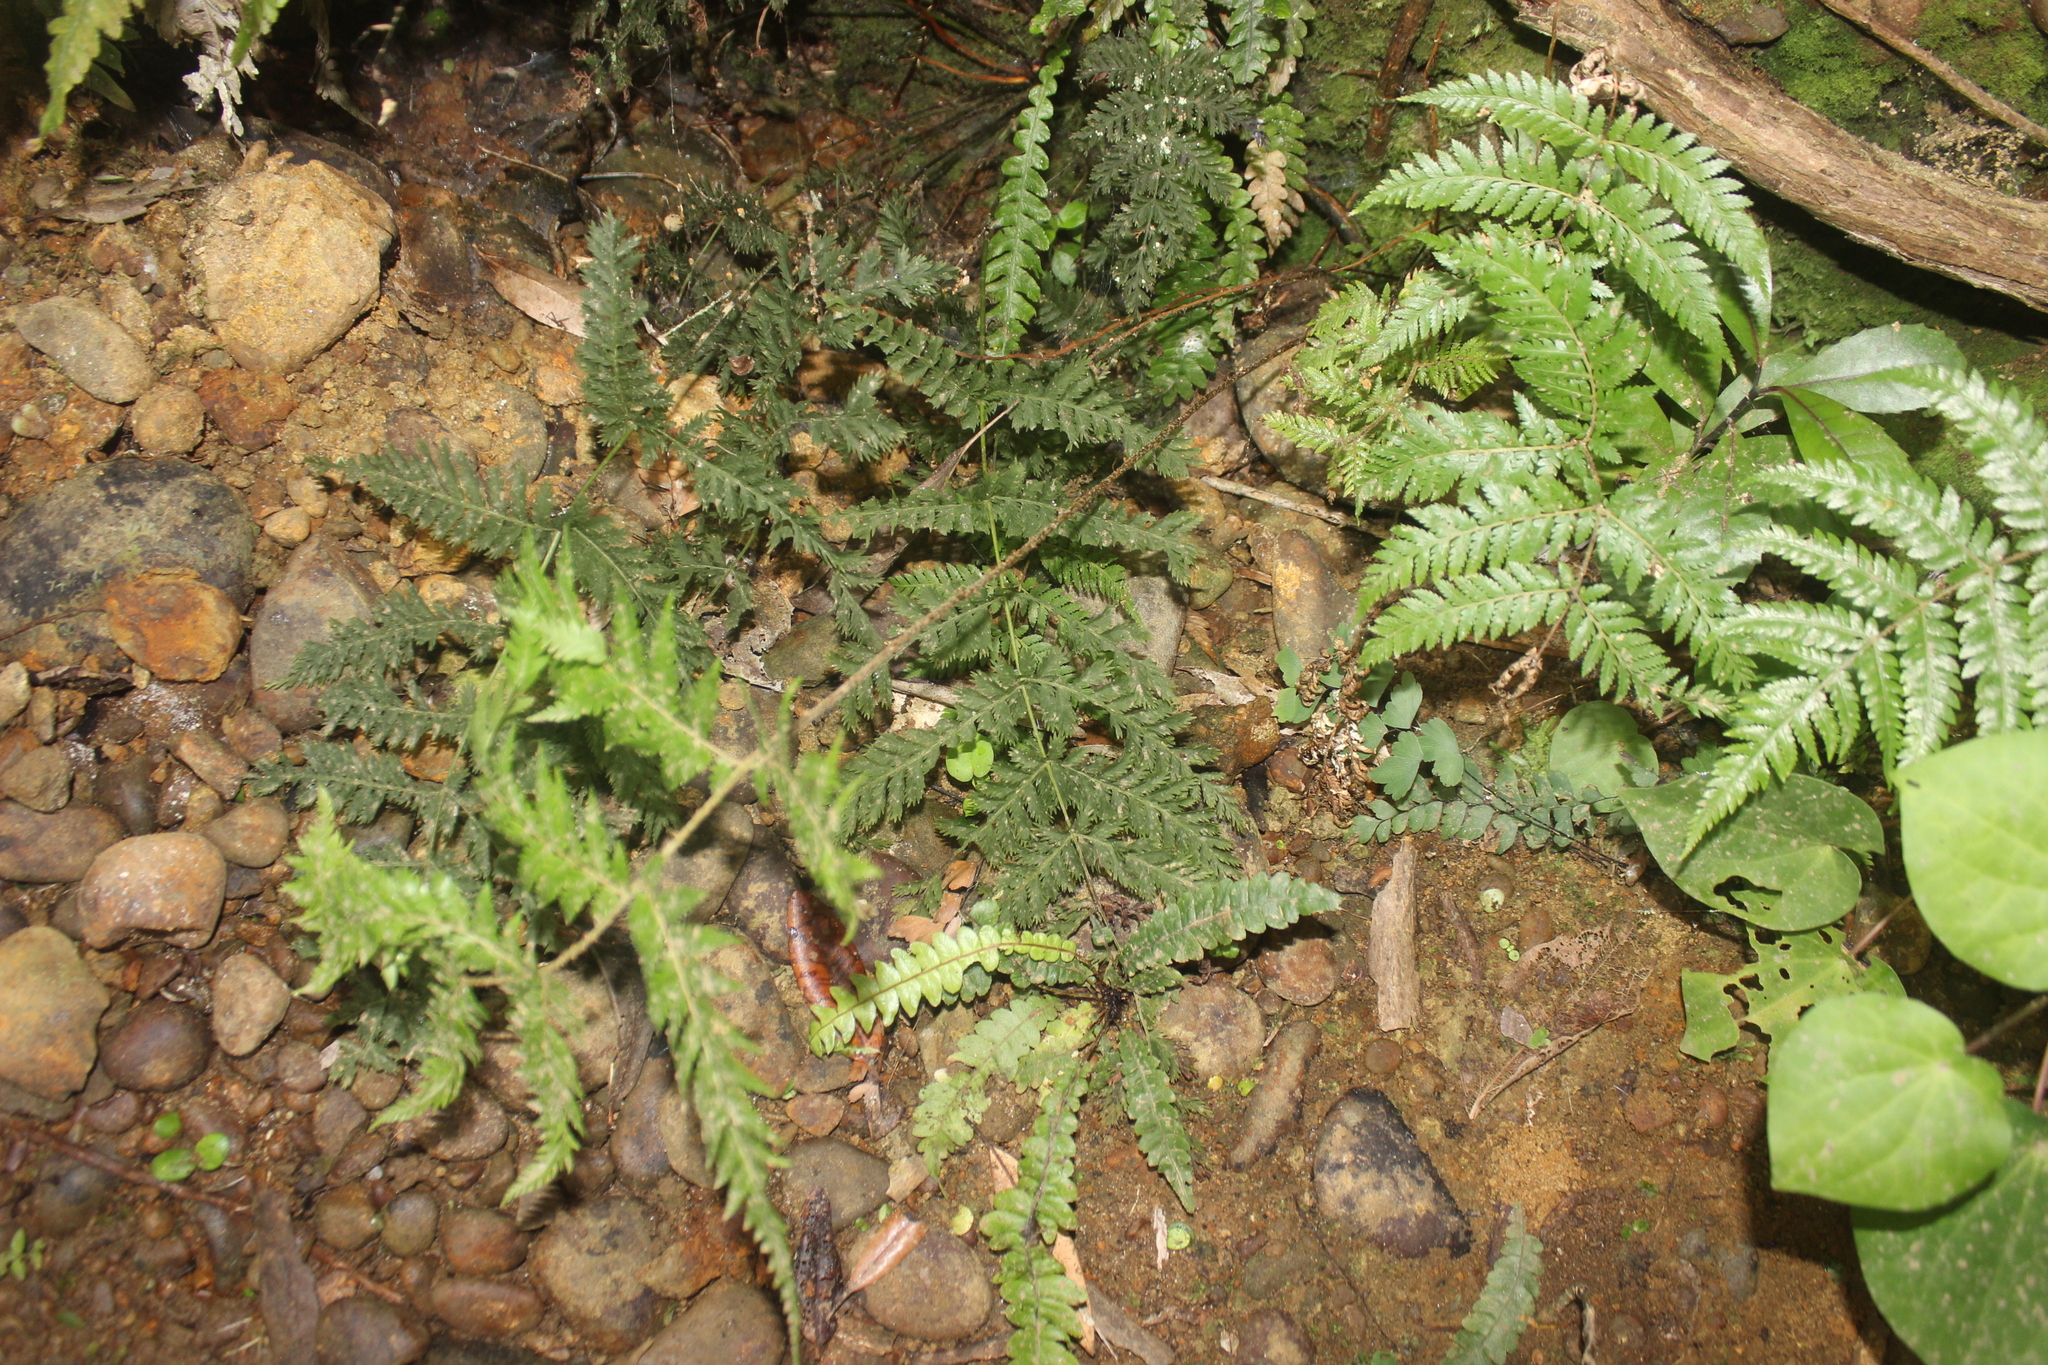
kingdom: Plantae
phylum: Tracheophyta
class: Polypodiopsida
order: Osmundales
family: Osmundaceae
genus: Leptopteris
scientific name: Leptopteris hymenophylloides
